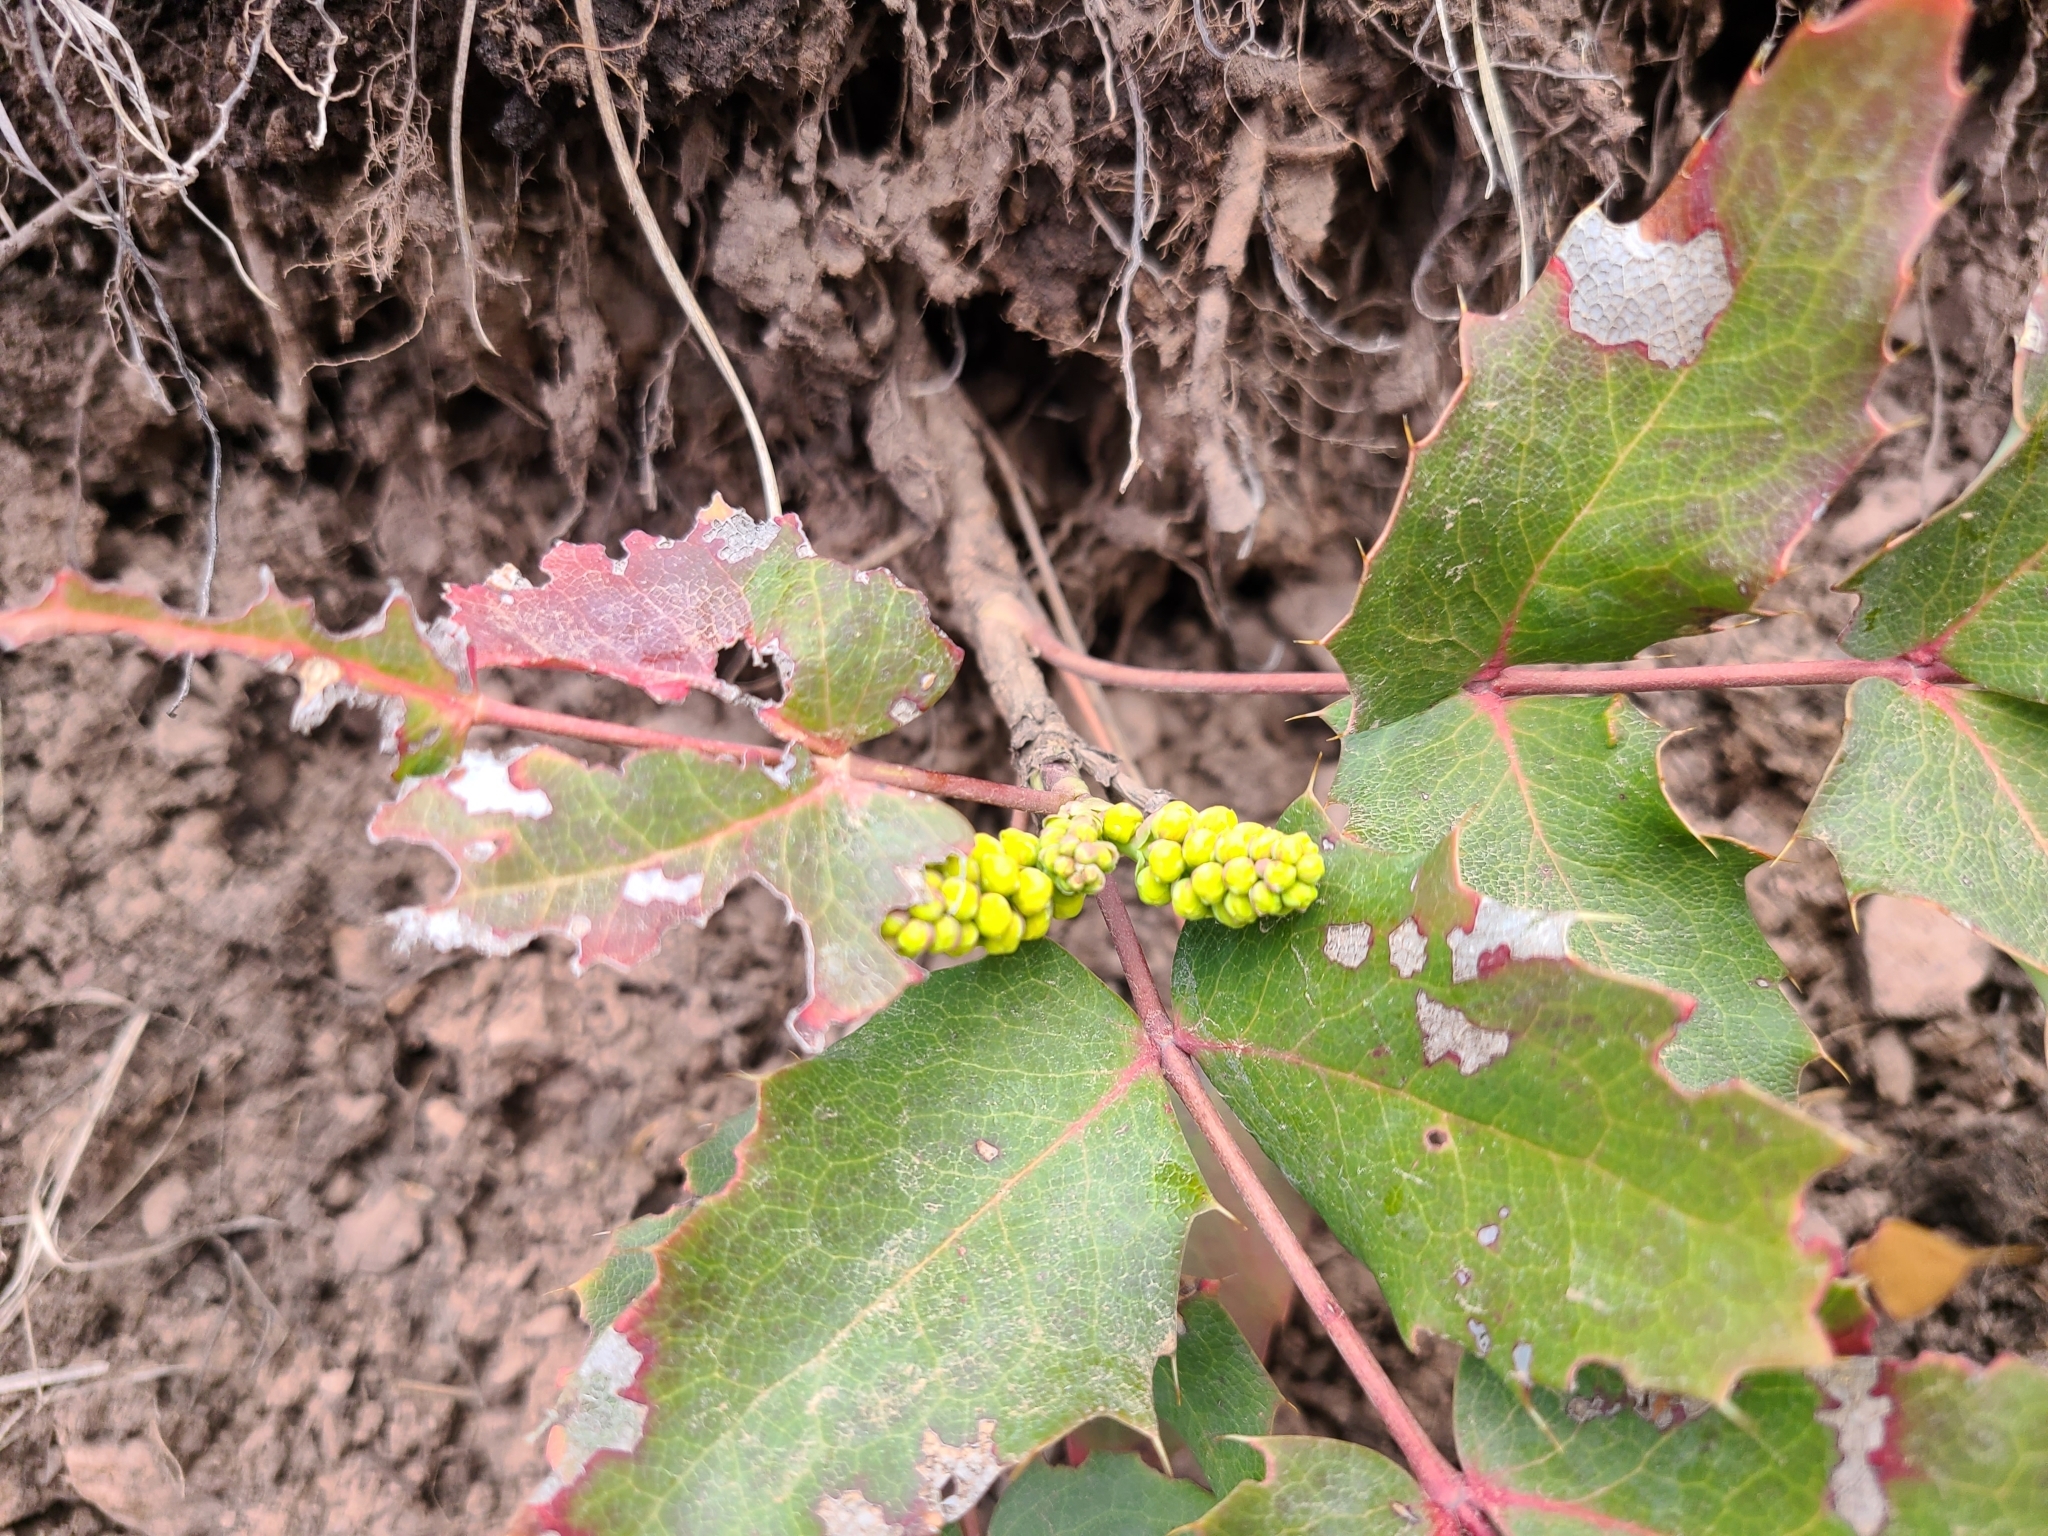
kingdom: Plantae
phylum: Tracheophyta
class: Magnoliopsida
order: Ranunculales
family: Berberidaceae
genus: Mahonia
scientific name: Mahonia repens
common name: Creeping oregon-grape
